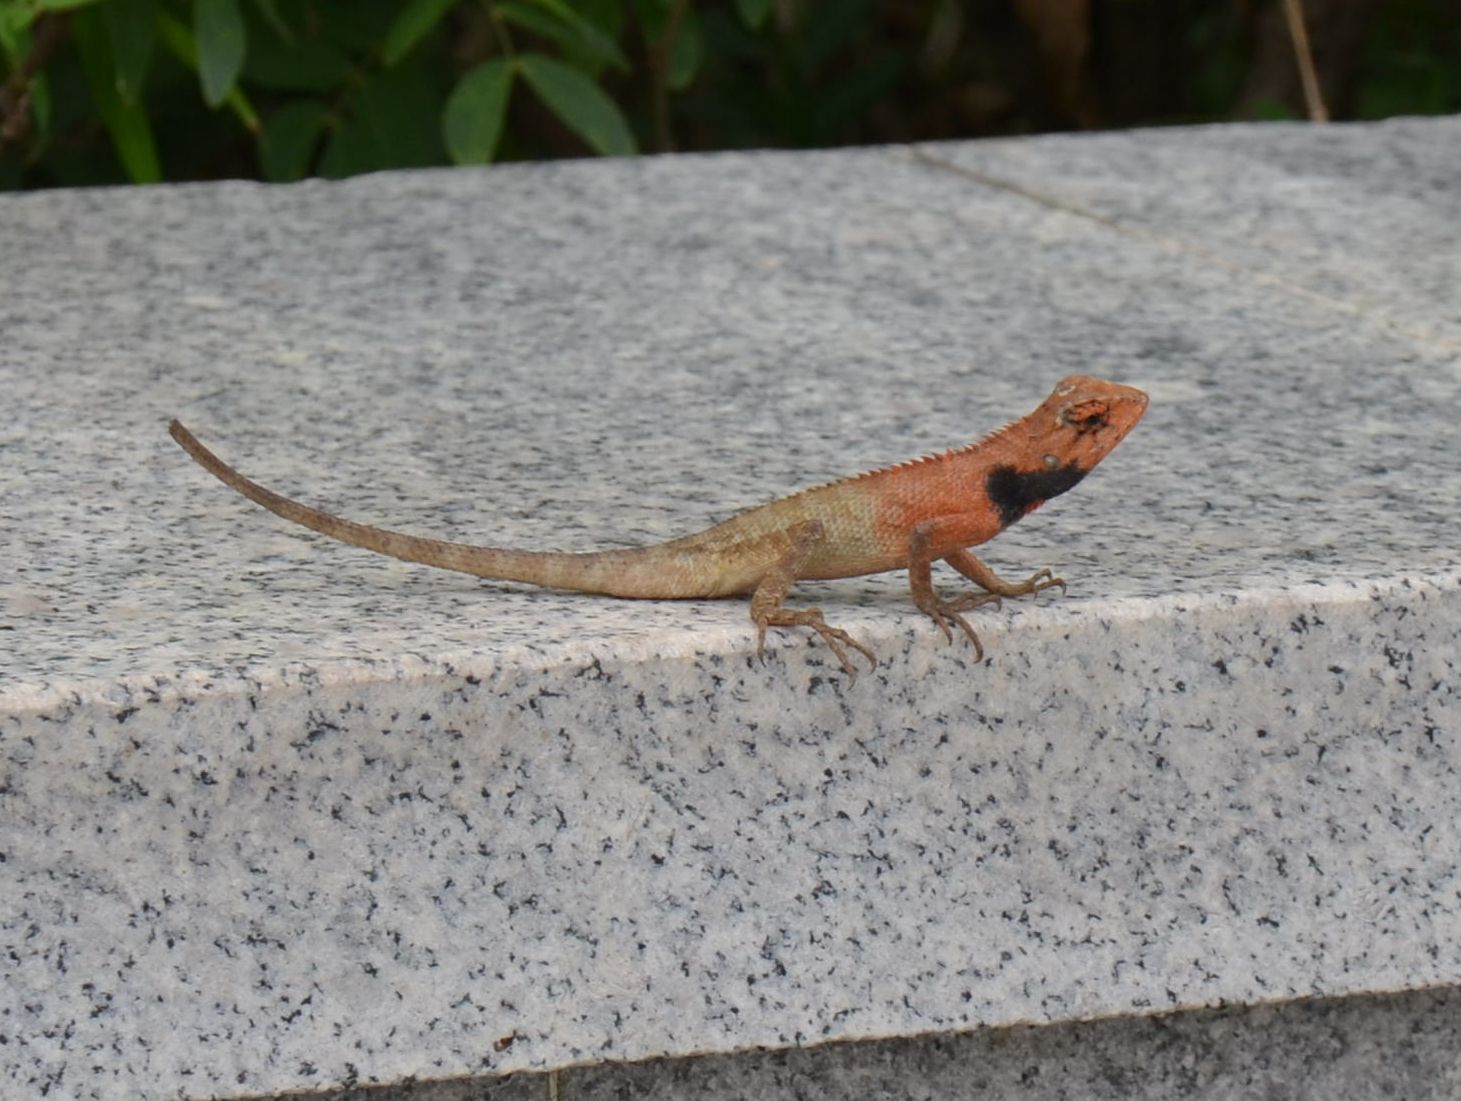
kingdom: Animalia
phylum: Chordata
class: Squamata
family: Agamidae
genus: Calotes
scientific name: Calotes versicolor
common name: Oriental garden lizard
